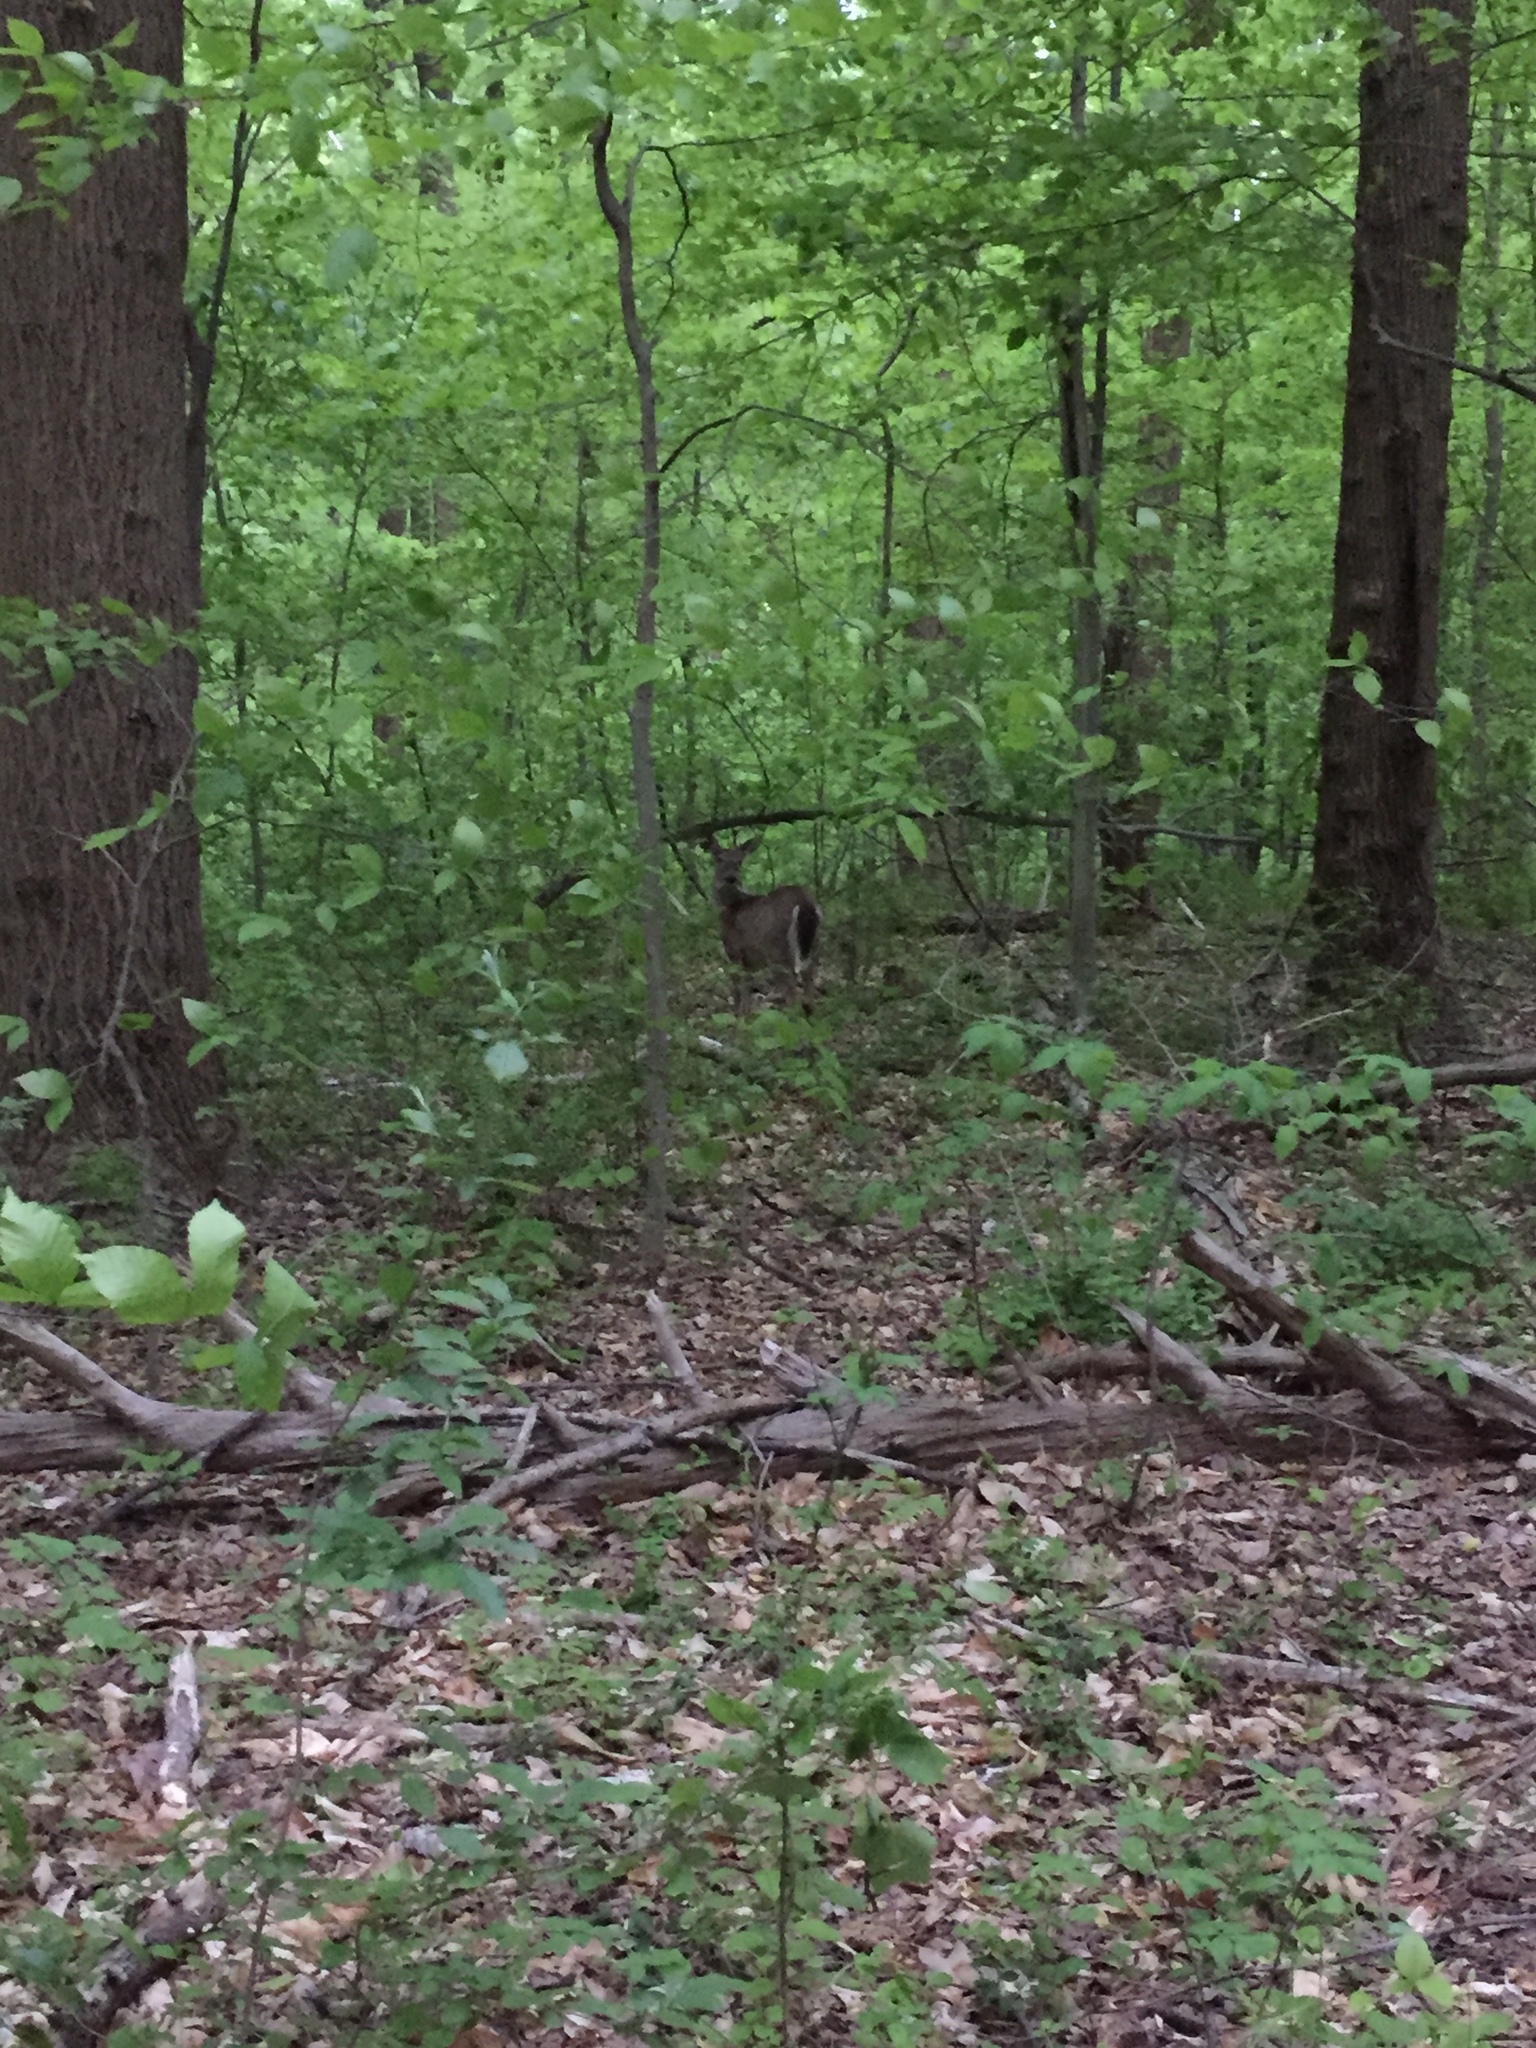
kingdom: Animalia
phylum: Chordata
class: Mammalia
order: Artiodactyla
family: Cervidae
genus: Odocoileus
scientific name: Odocoileus virginianus
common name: White-tailed deer
